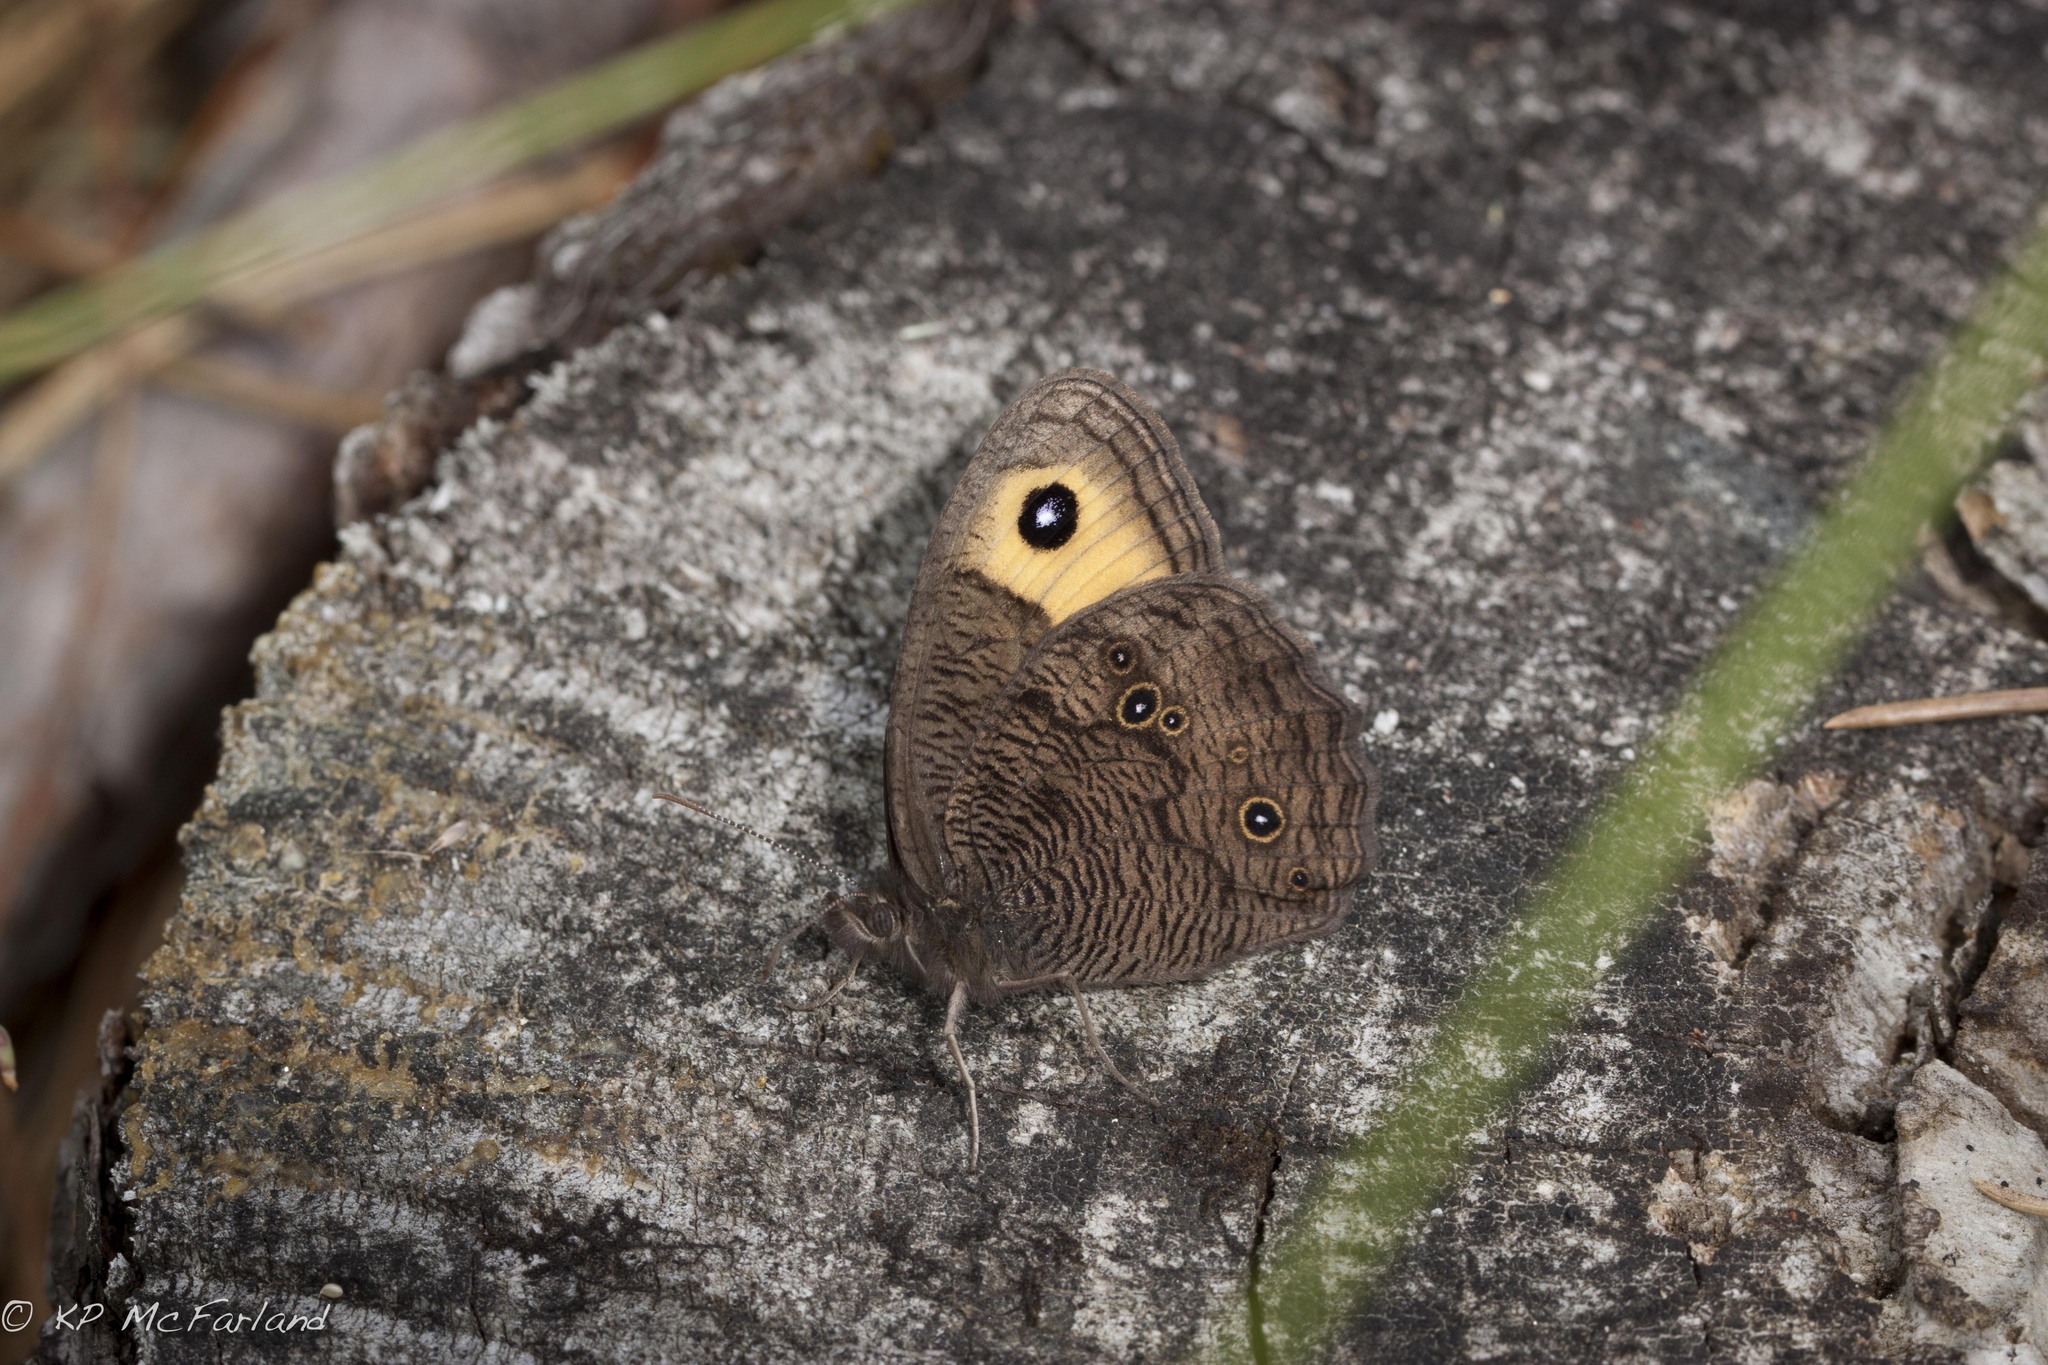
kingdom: Animalia
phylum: Arthropoda
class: Insecta
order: Lepidoptera
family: Nymphalidae
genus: Cercyonis
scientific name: Cercyonis pegala
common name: Common wood-nymph
